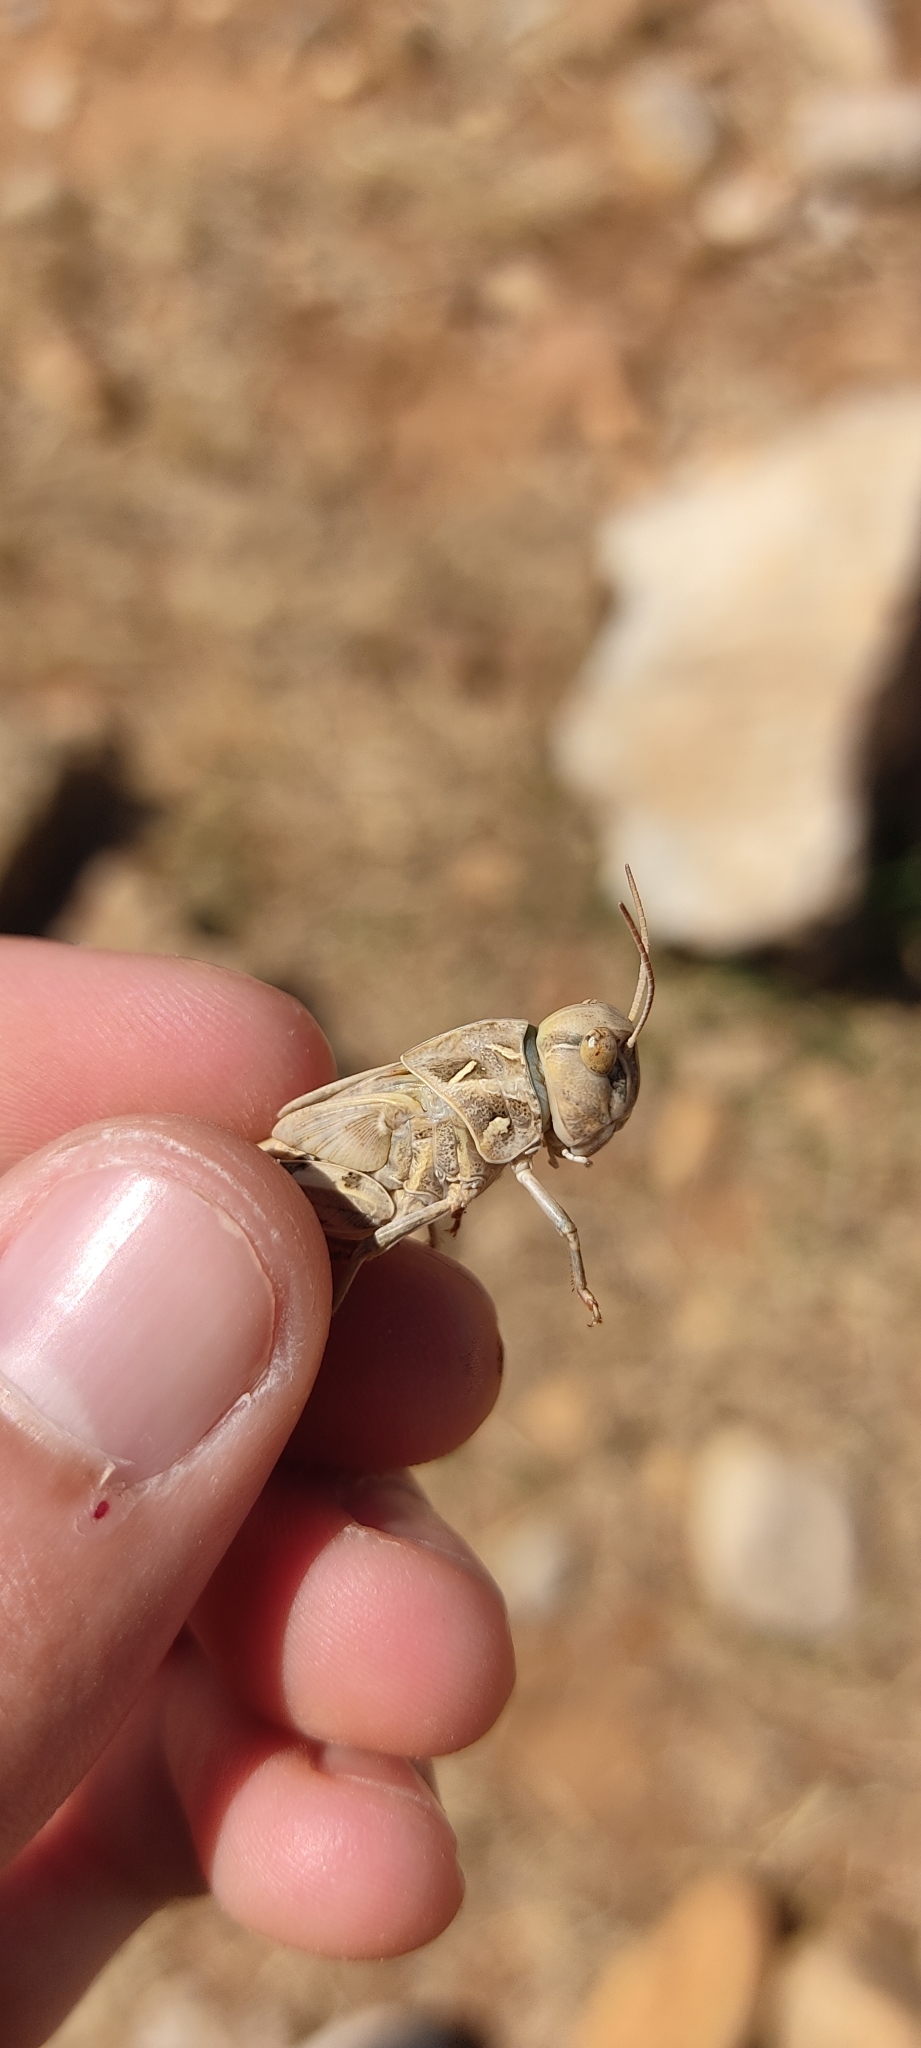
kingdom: Animalia
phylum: Arthropoda
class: Insecta
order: Orthoptera
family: Acrididae
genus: Oedaleus
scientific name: Oedaleus decorus
